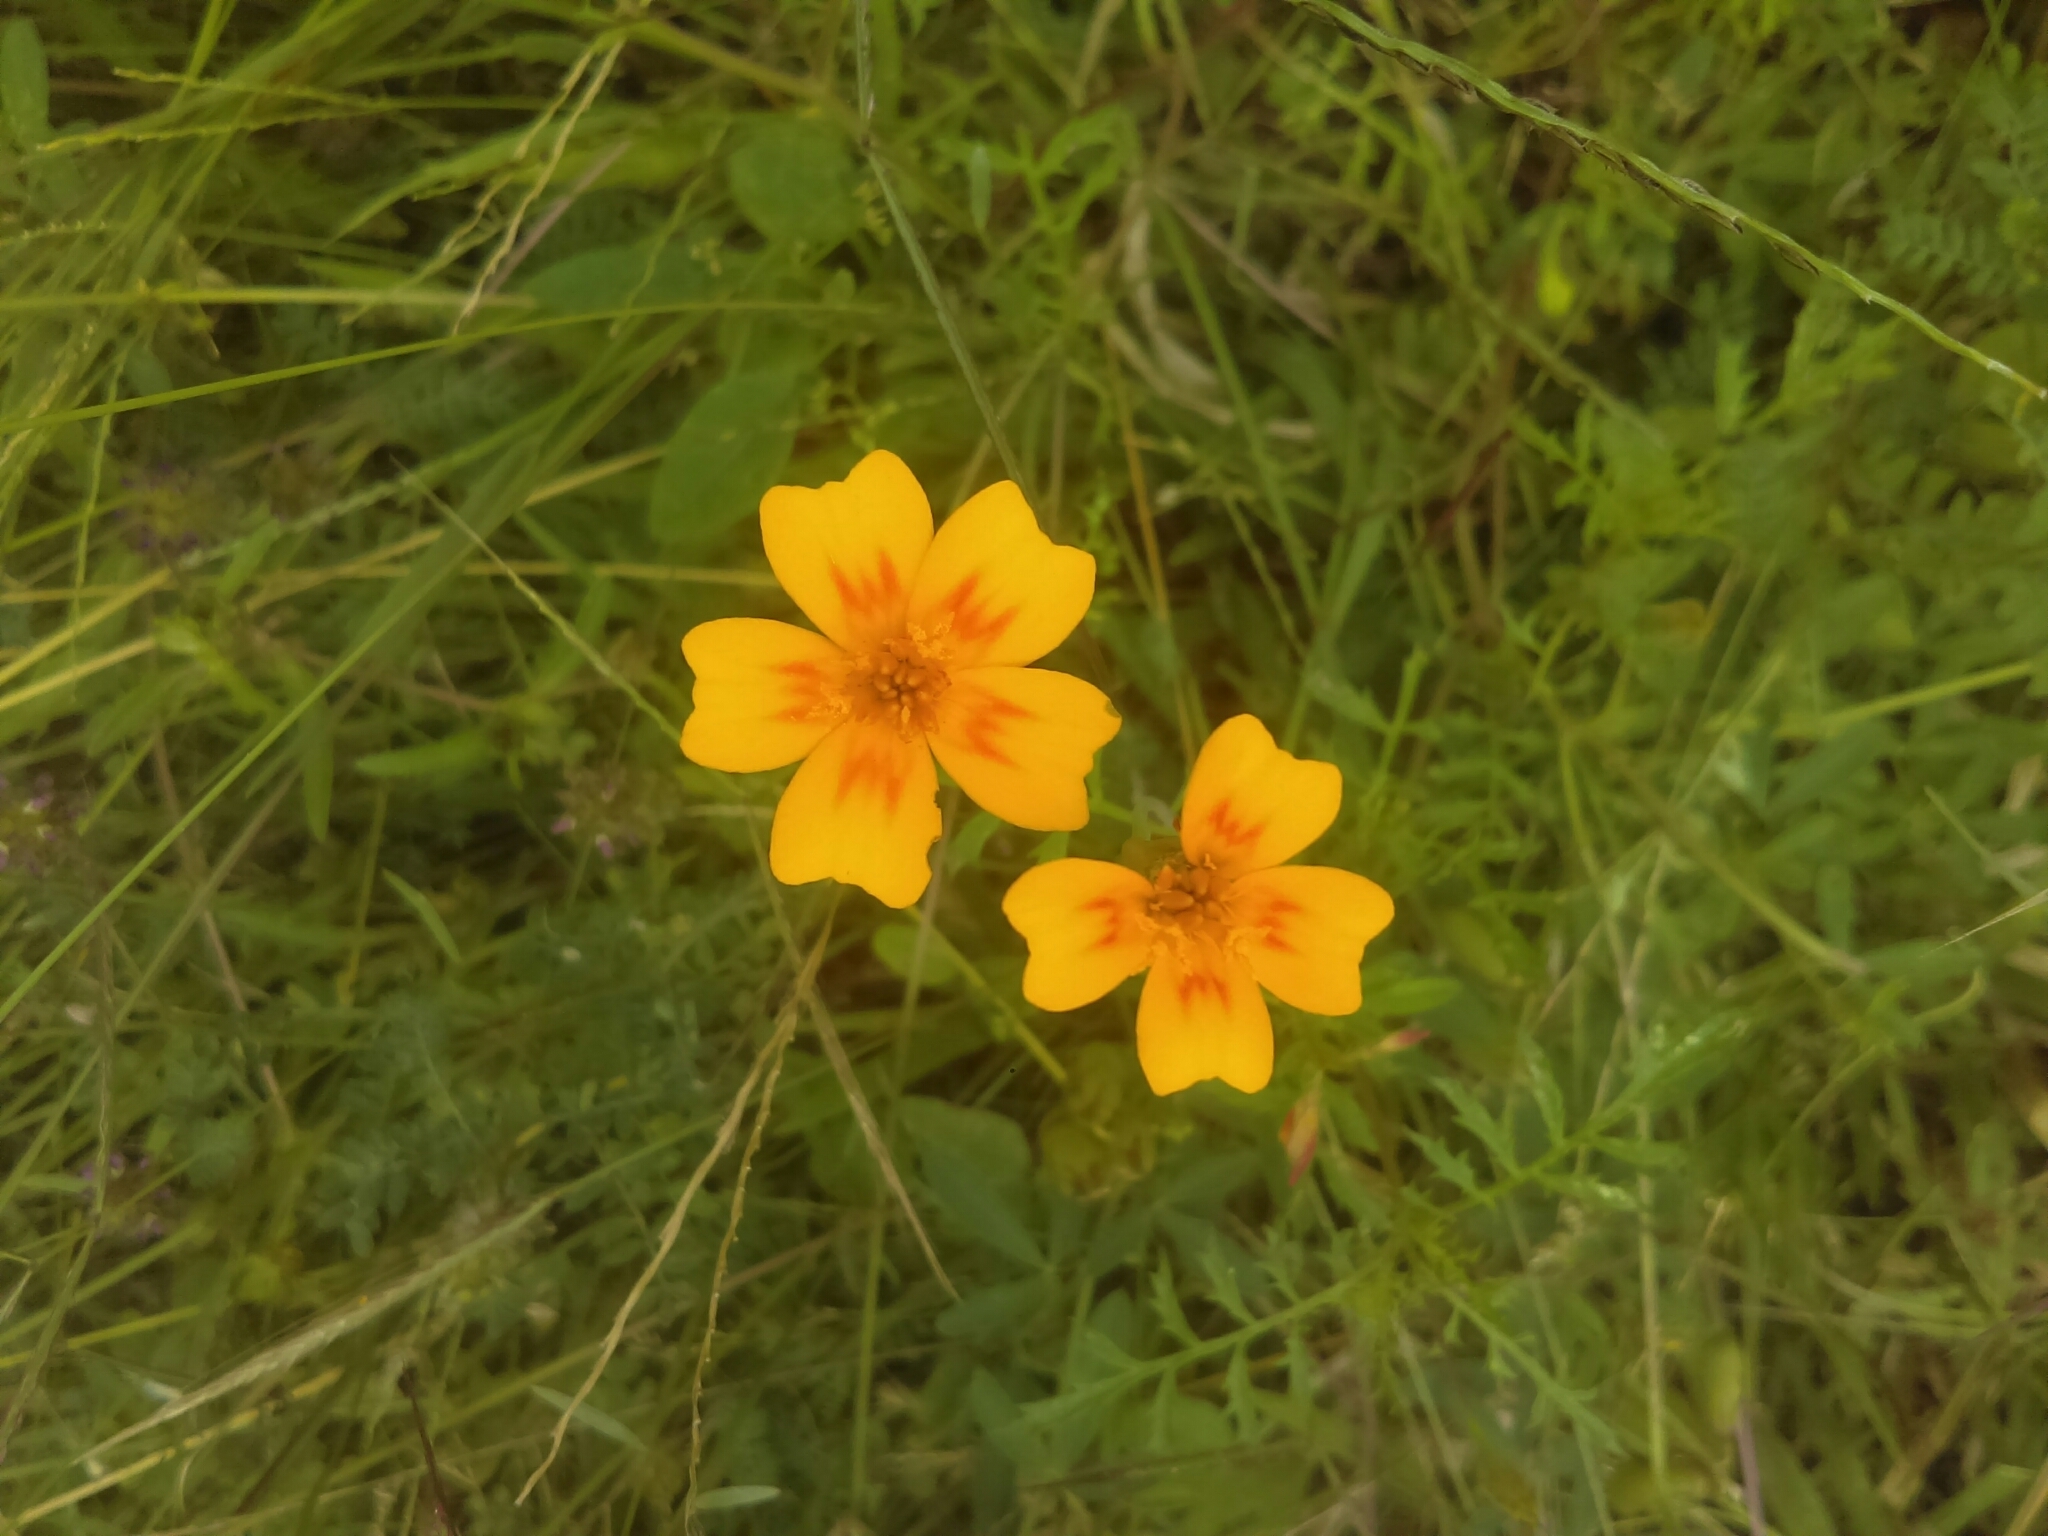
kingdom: Plantae
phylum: Tracheophyta
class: Magnoliopsida
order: Asterales
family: Asteraceae
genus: Tagetes
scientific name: Tagetes lunulata
